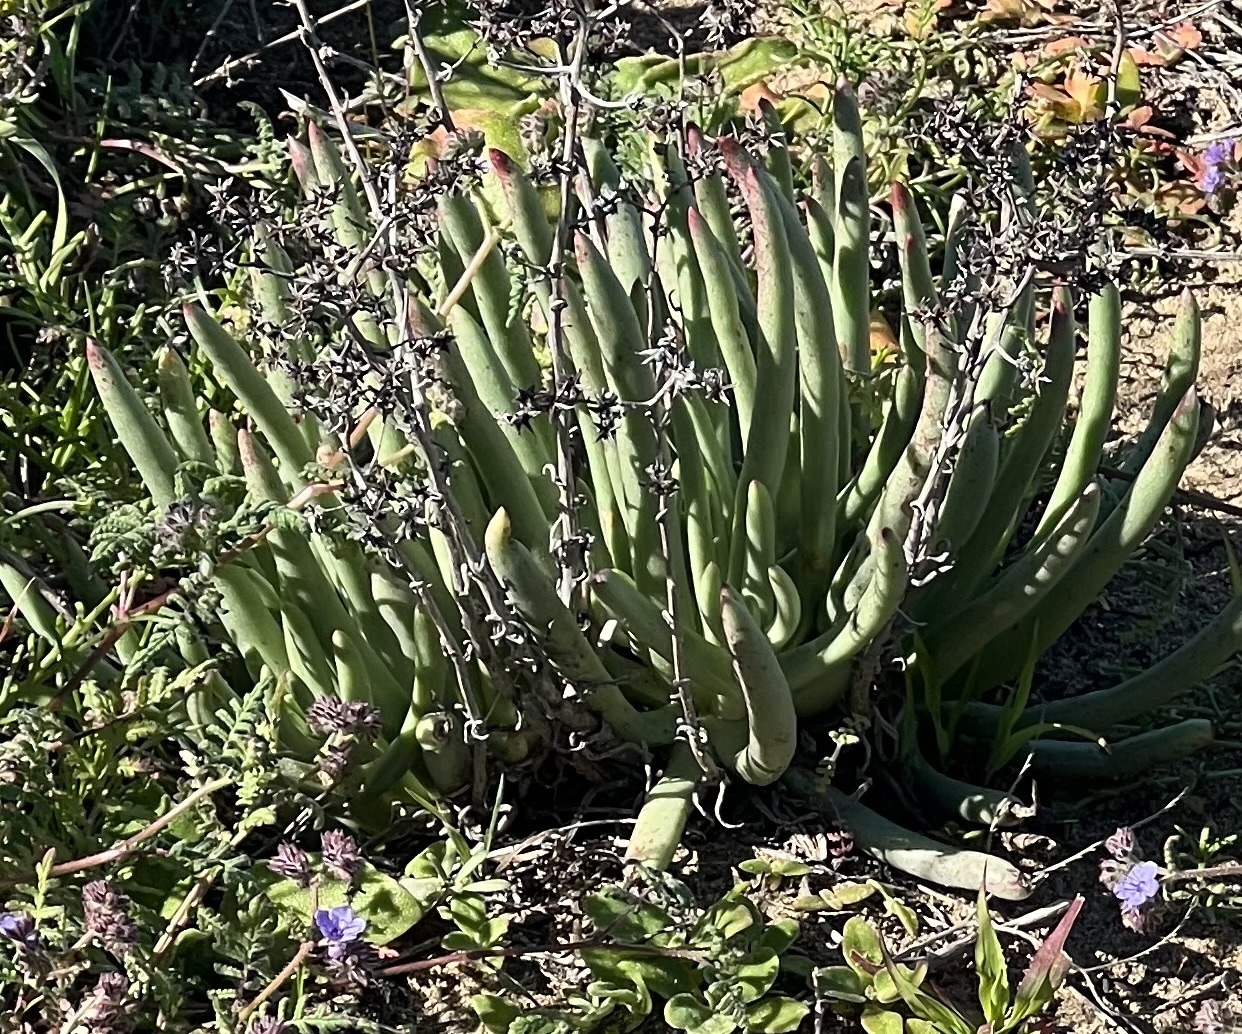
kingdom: Plantae
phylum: Tracheophyta
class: Magnoliopsida
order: Saxifragales
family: Crassulaceae
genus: Dudleya
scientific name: Dudleya edulis
